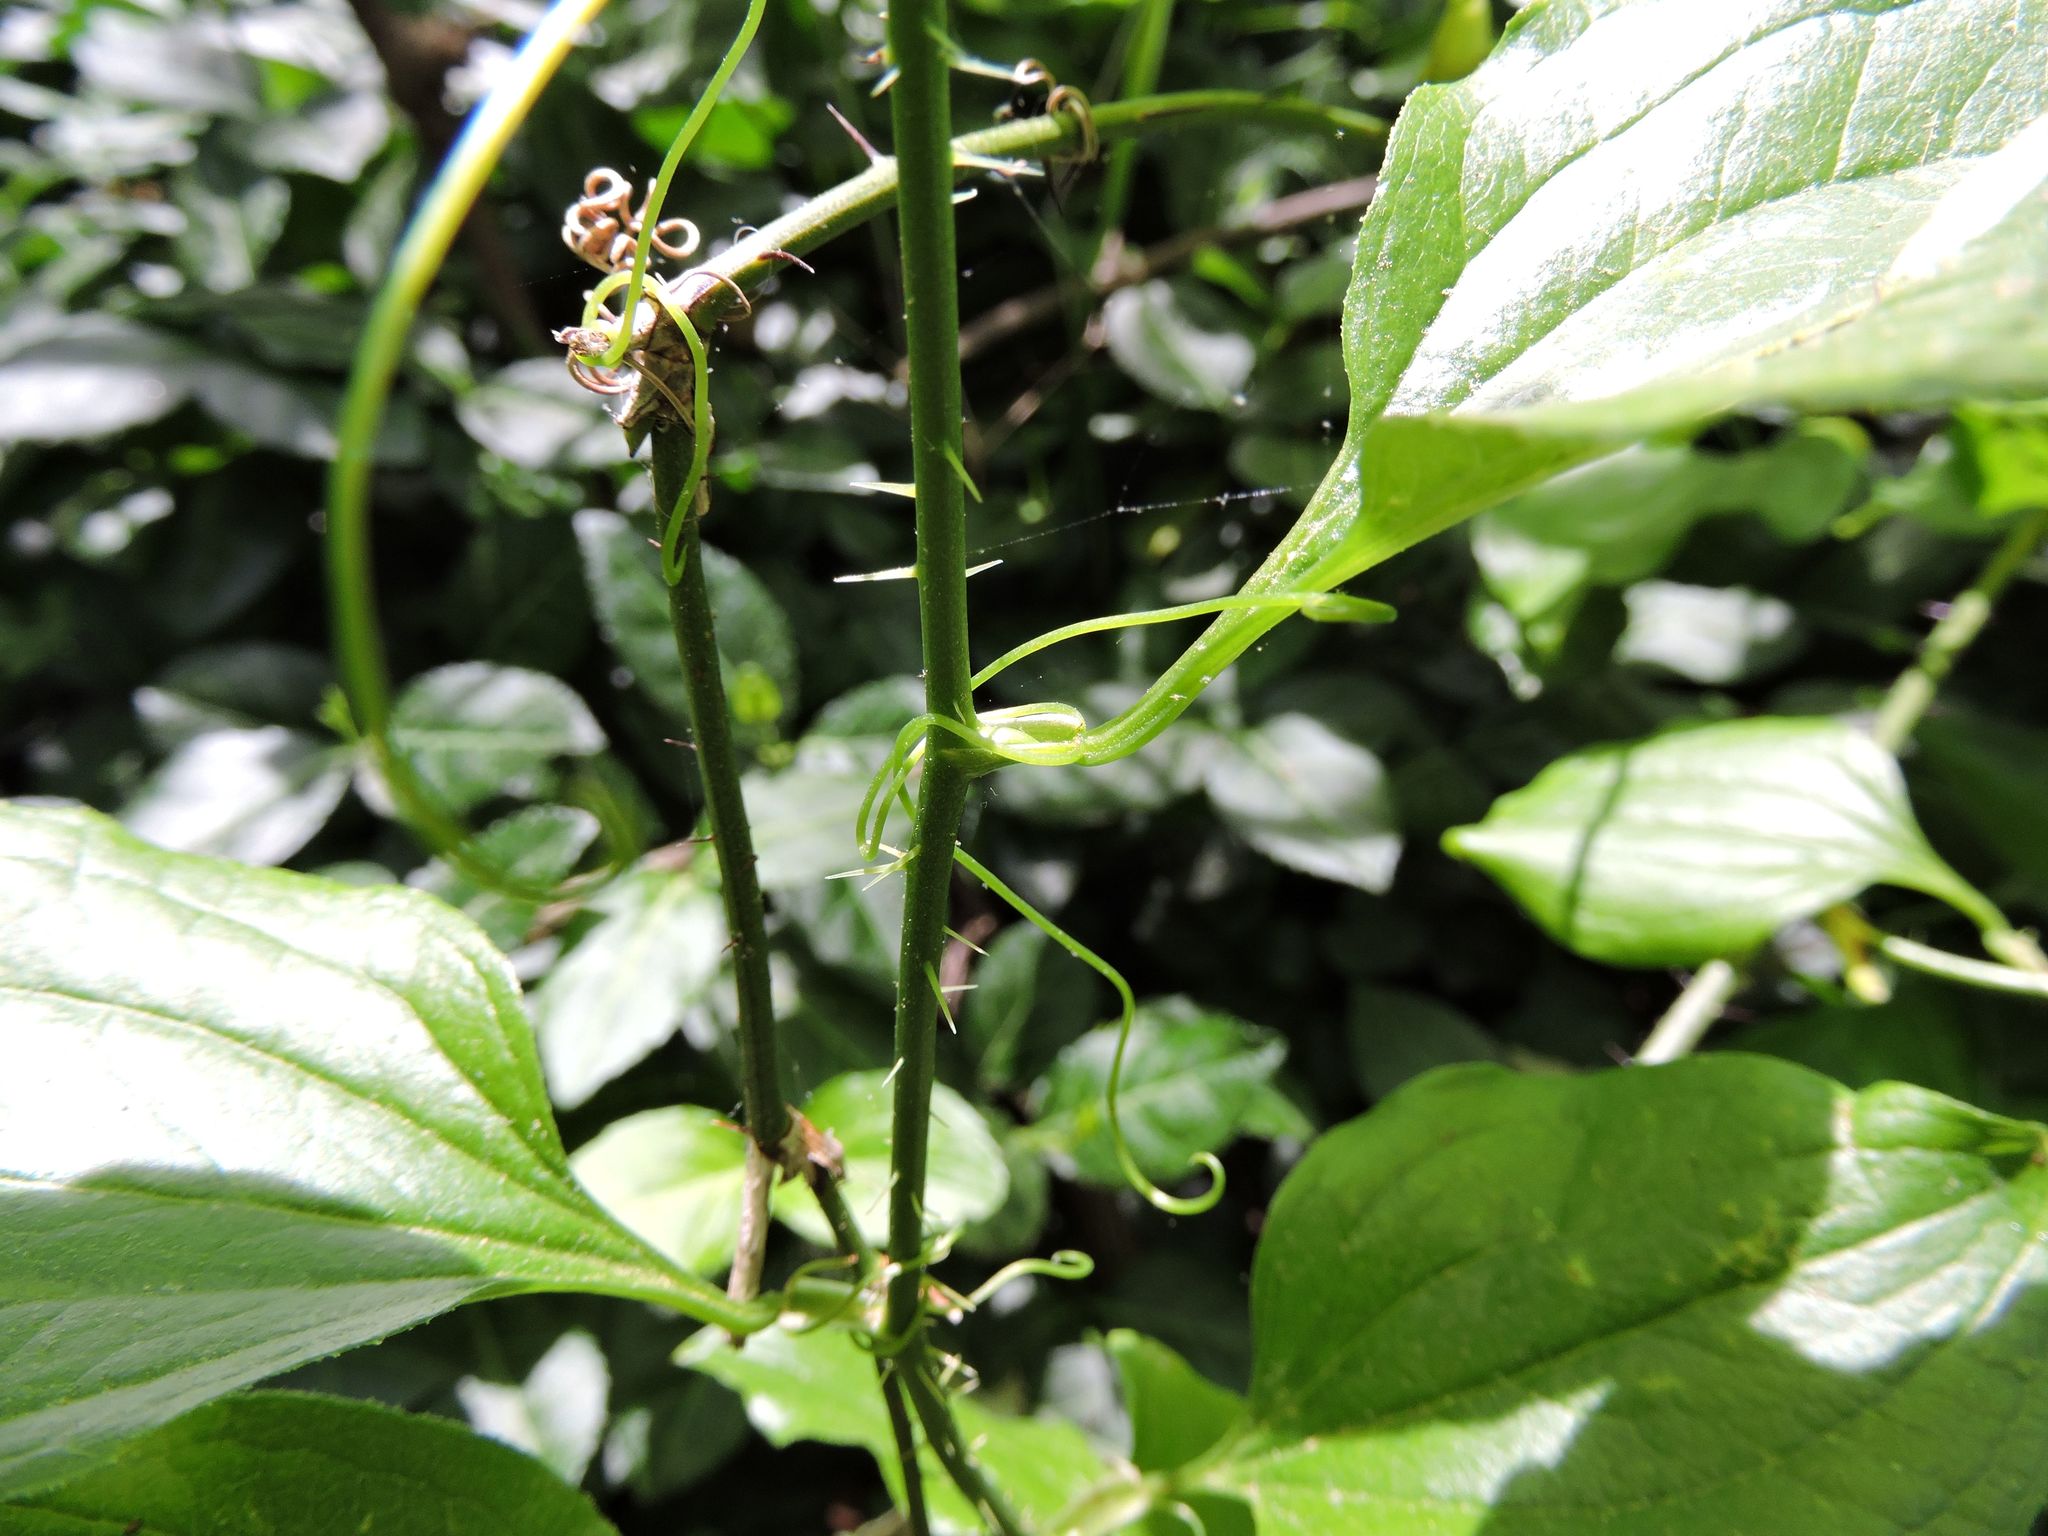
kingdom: Plantae
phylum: Tracheophyta
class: Liliopsida
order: Liliales
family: Smilacaceae
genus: Smilax
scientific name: Smilax tamnoides
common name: Hellfetter
